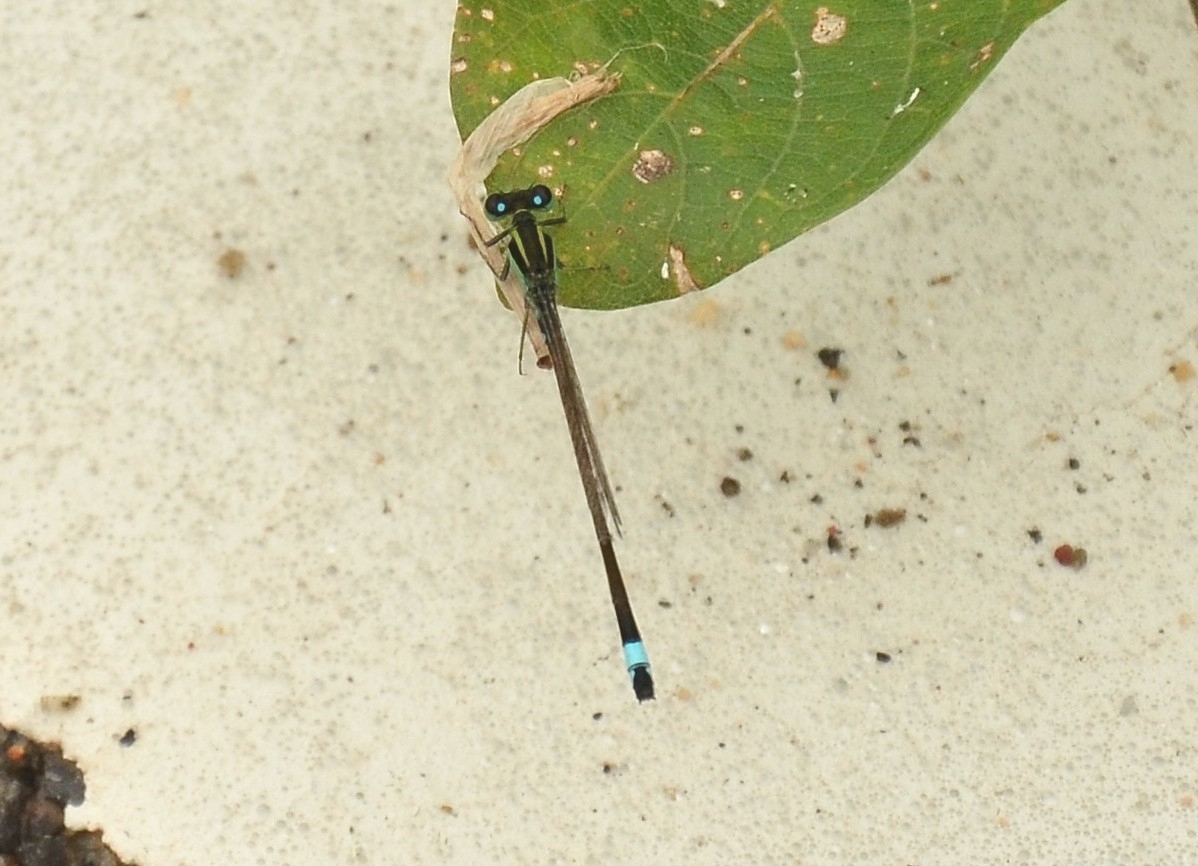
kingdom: Animalia
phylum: Arthropoda
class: Insecta
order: Odonata
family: Coenagrionidae
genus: Ischnura
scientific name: Ischnura senegalensis
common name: Tropical bluetail
